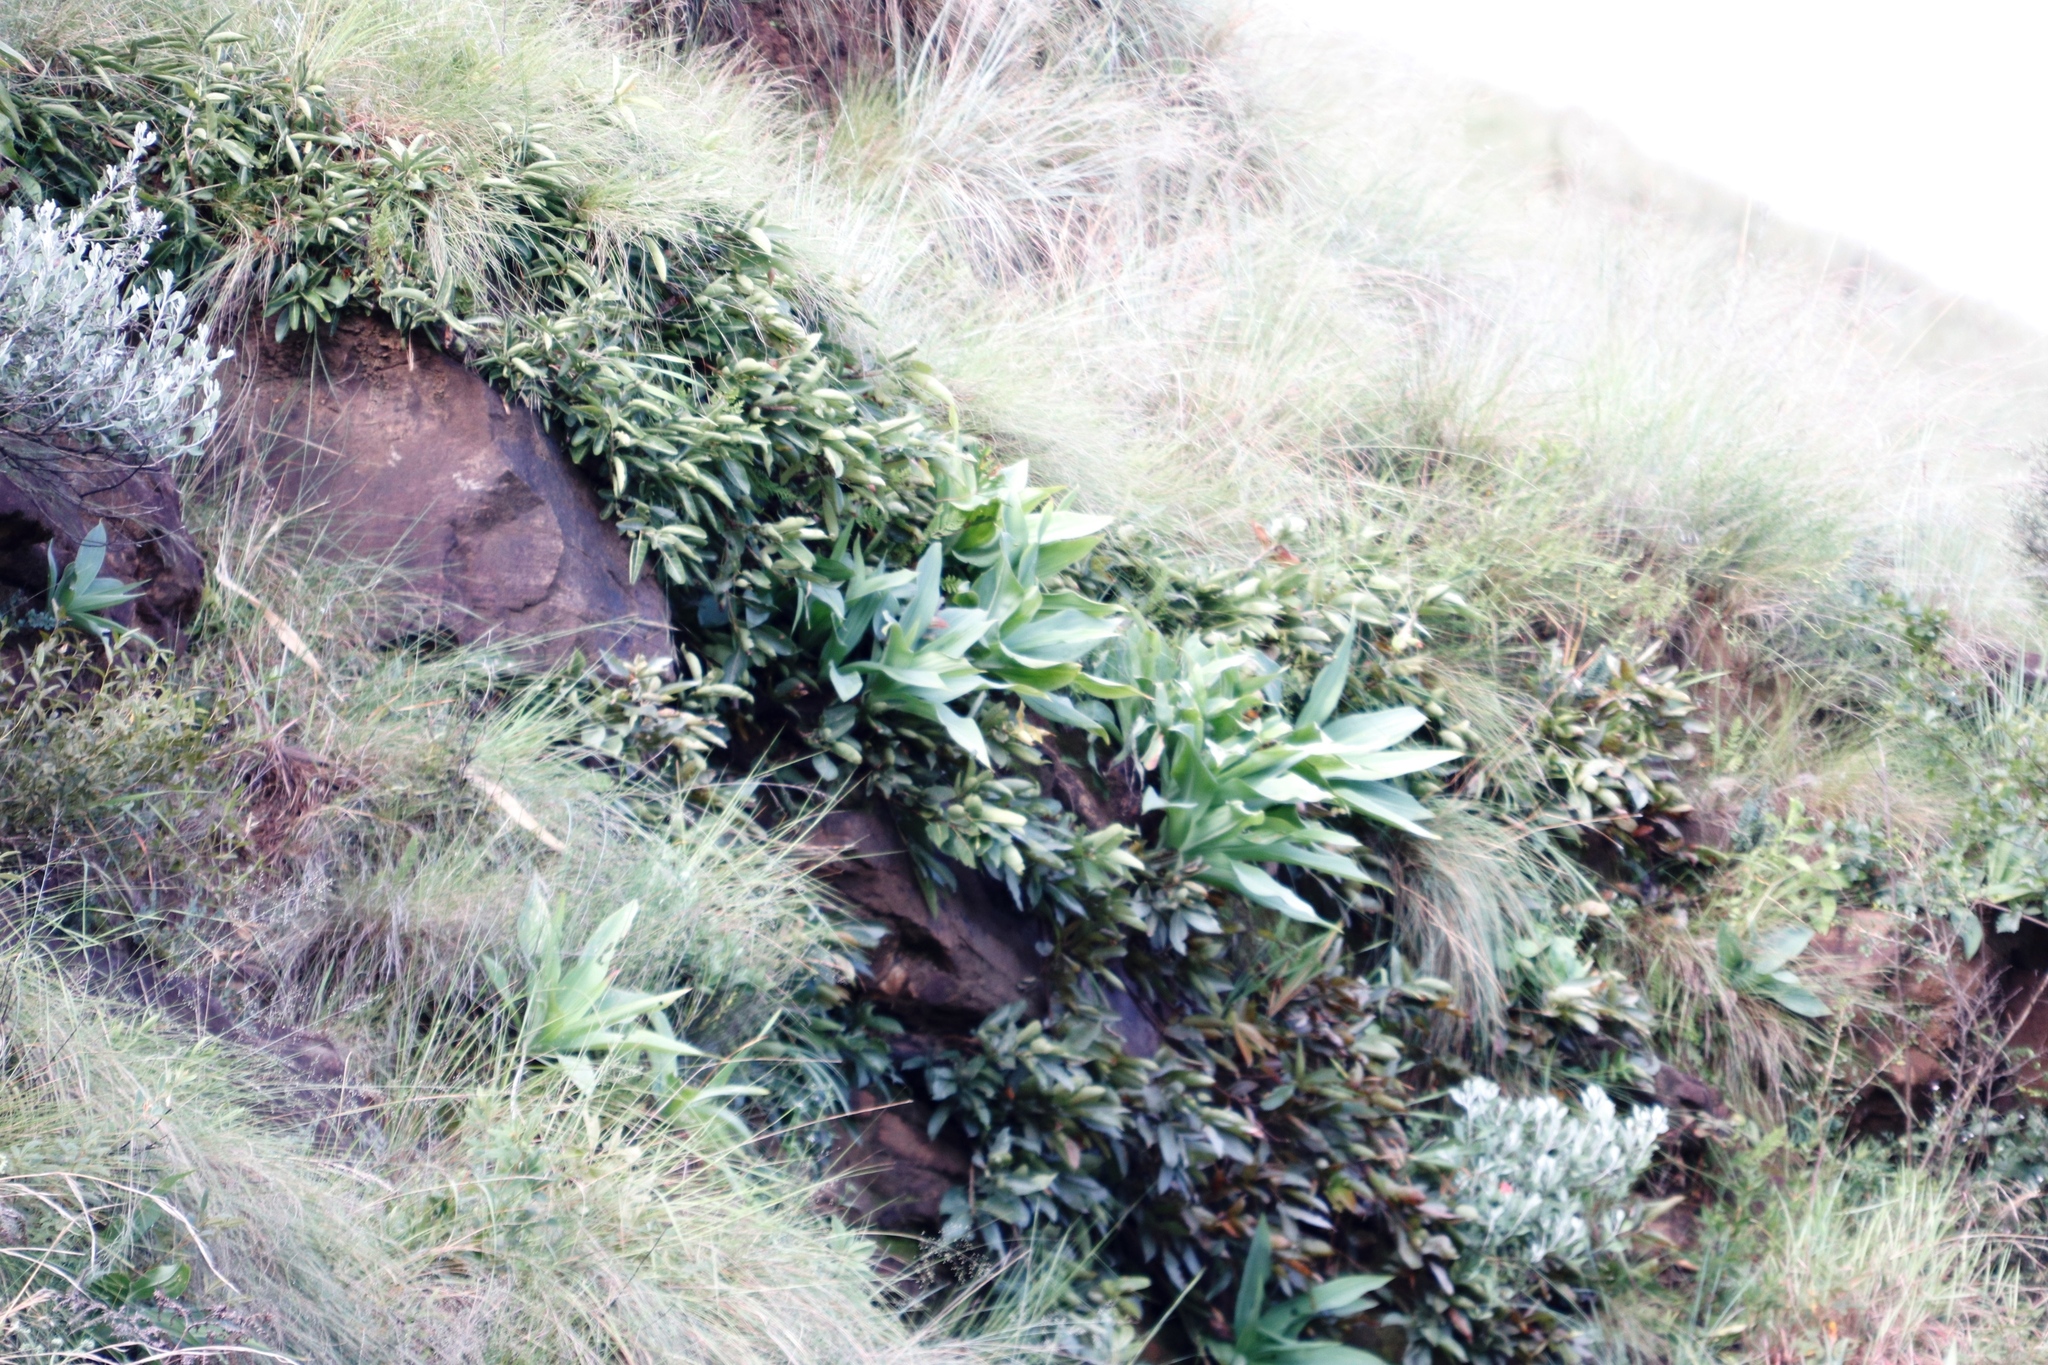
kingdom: Plantae
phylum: Tracheophyta
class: Liliopsida
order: Asparagales
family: Asparagaceae
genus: Merwilla
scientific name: Merwilla plumbea
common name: Blue-squill
